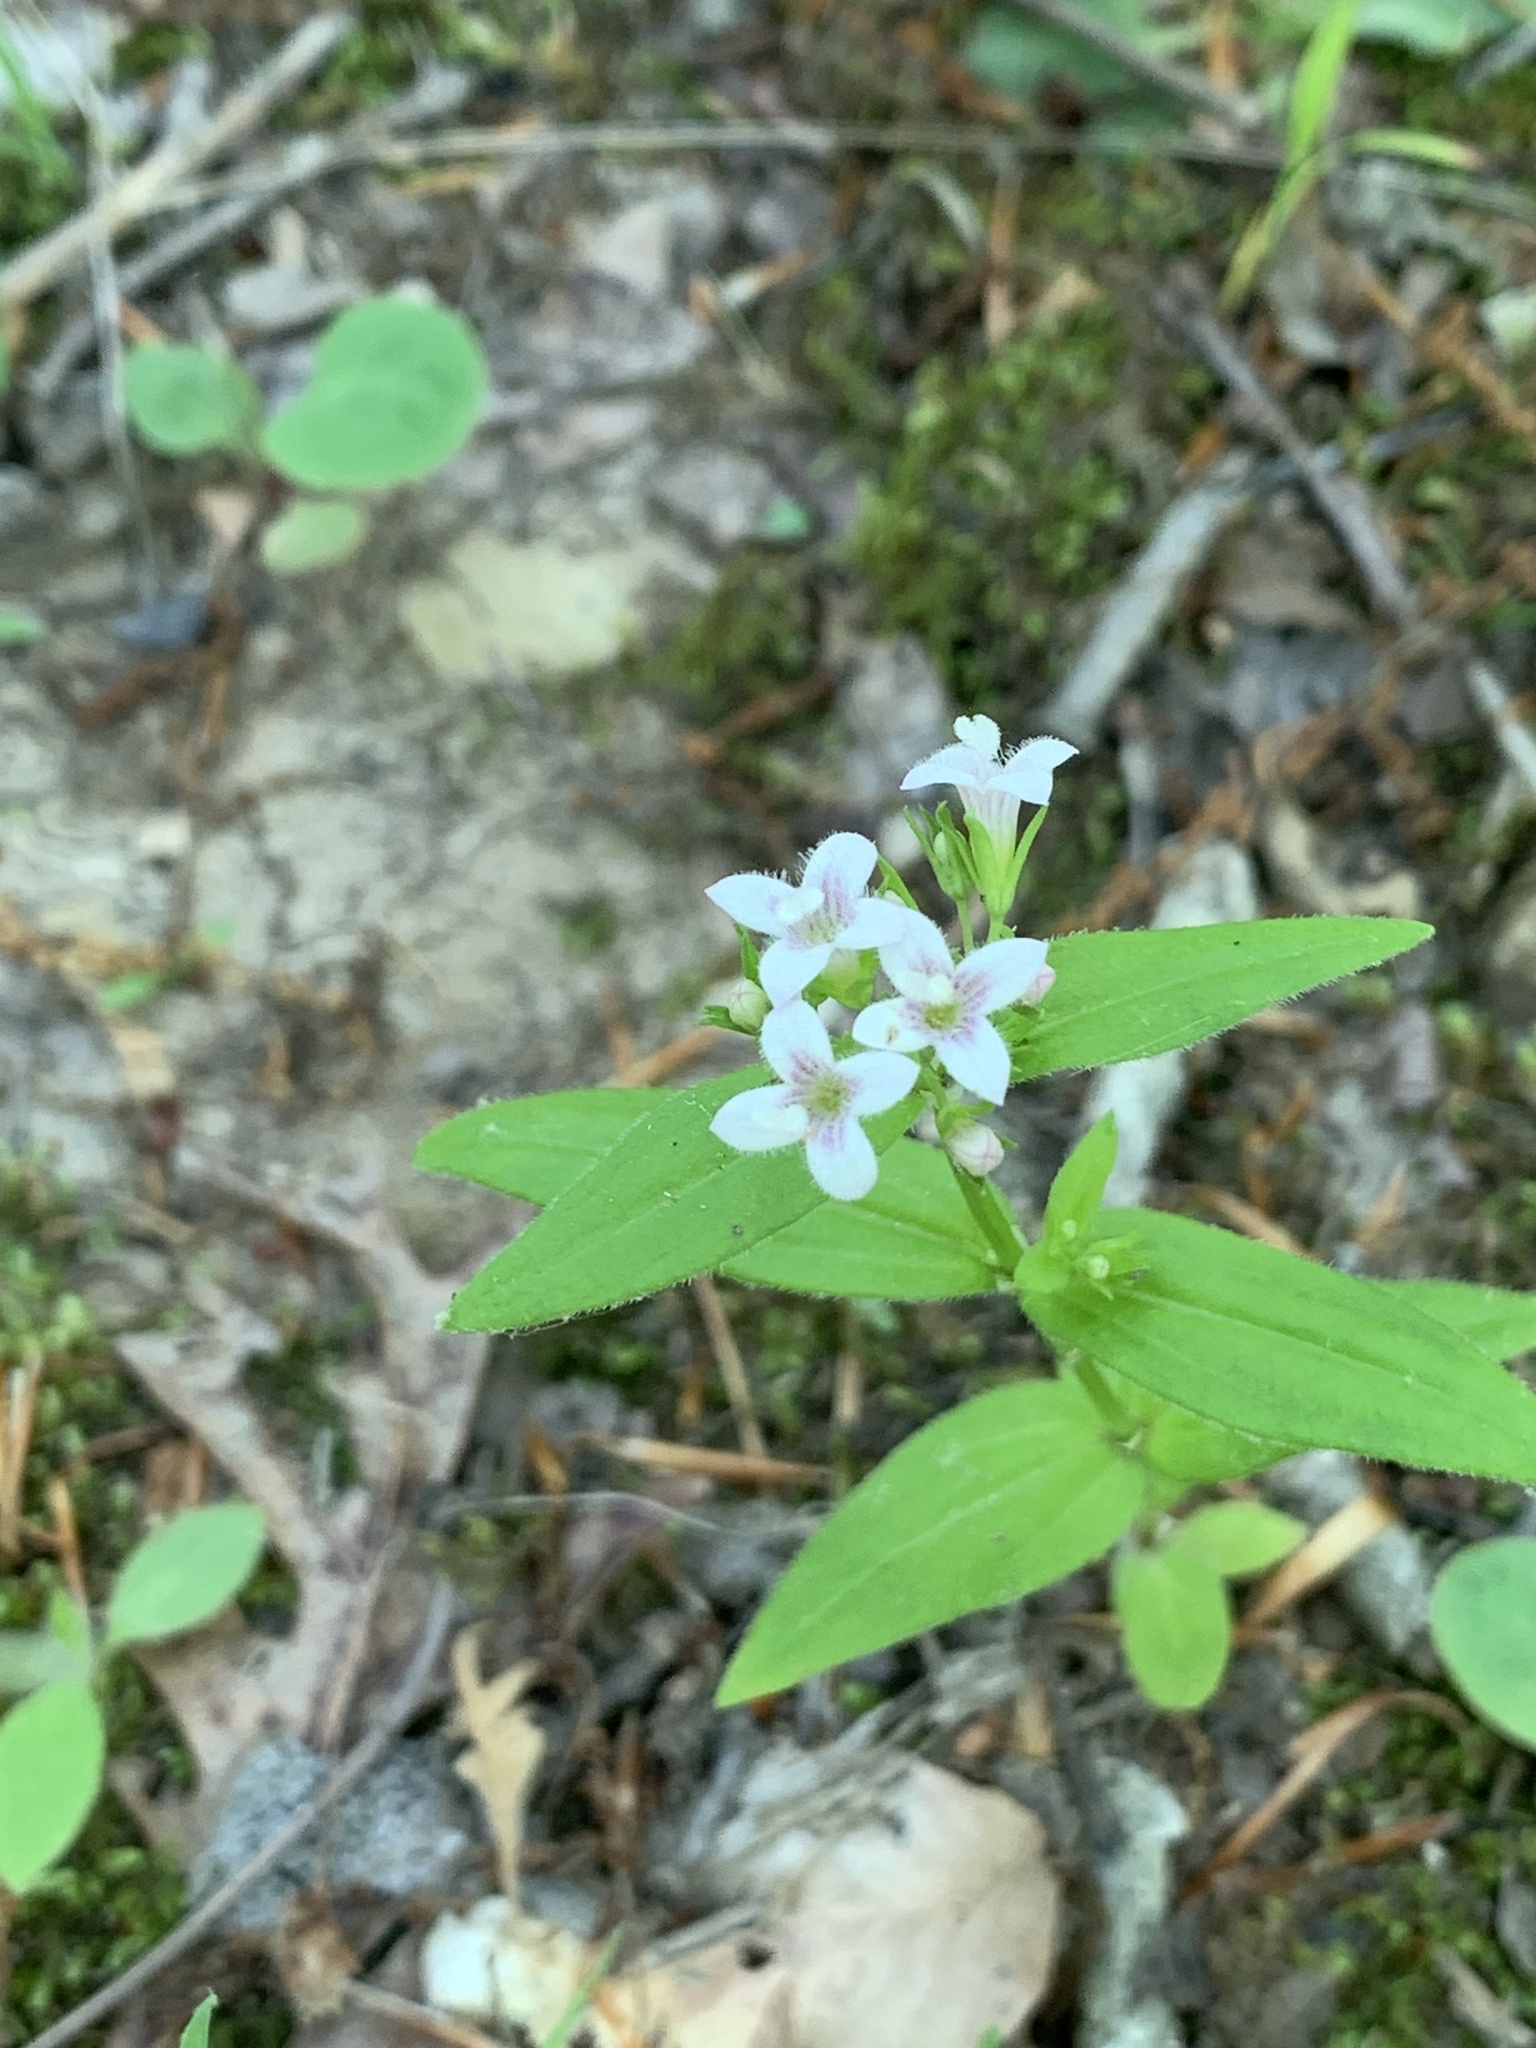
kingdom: Plantae
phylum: Tracheophyta
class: Magnoliopsida
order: Gentianales
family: Rubiaceae
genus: Houstonia
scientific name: Houstonia purpurea
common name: Summer bluet
